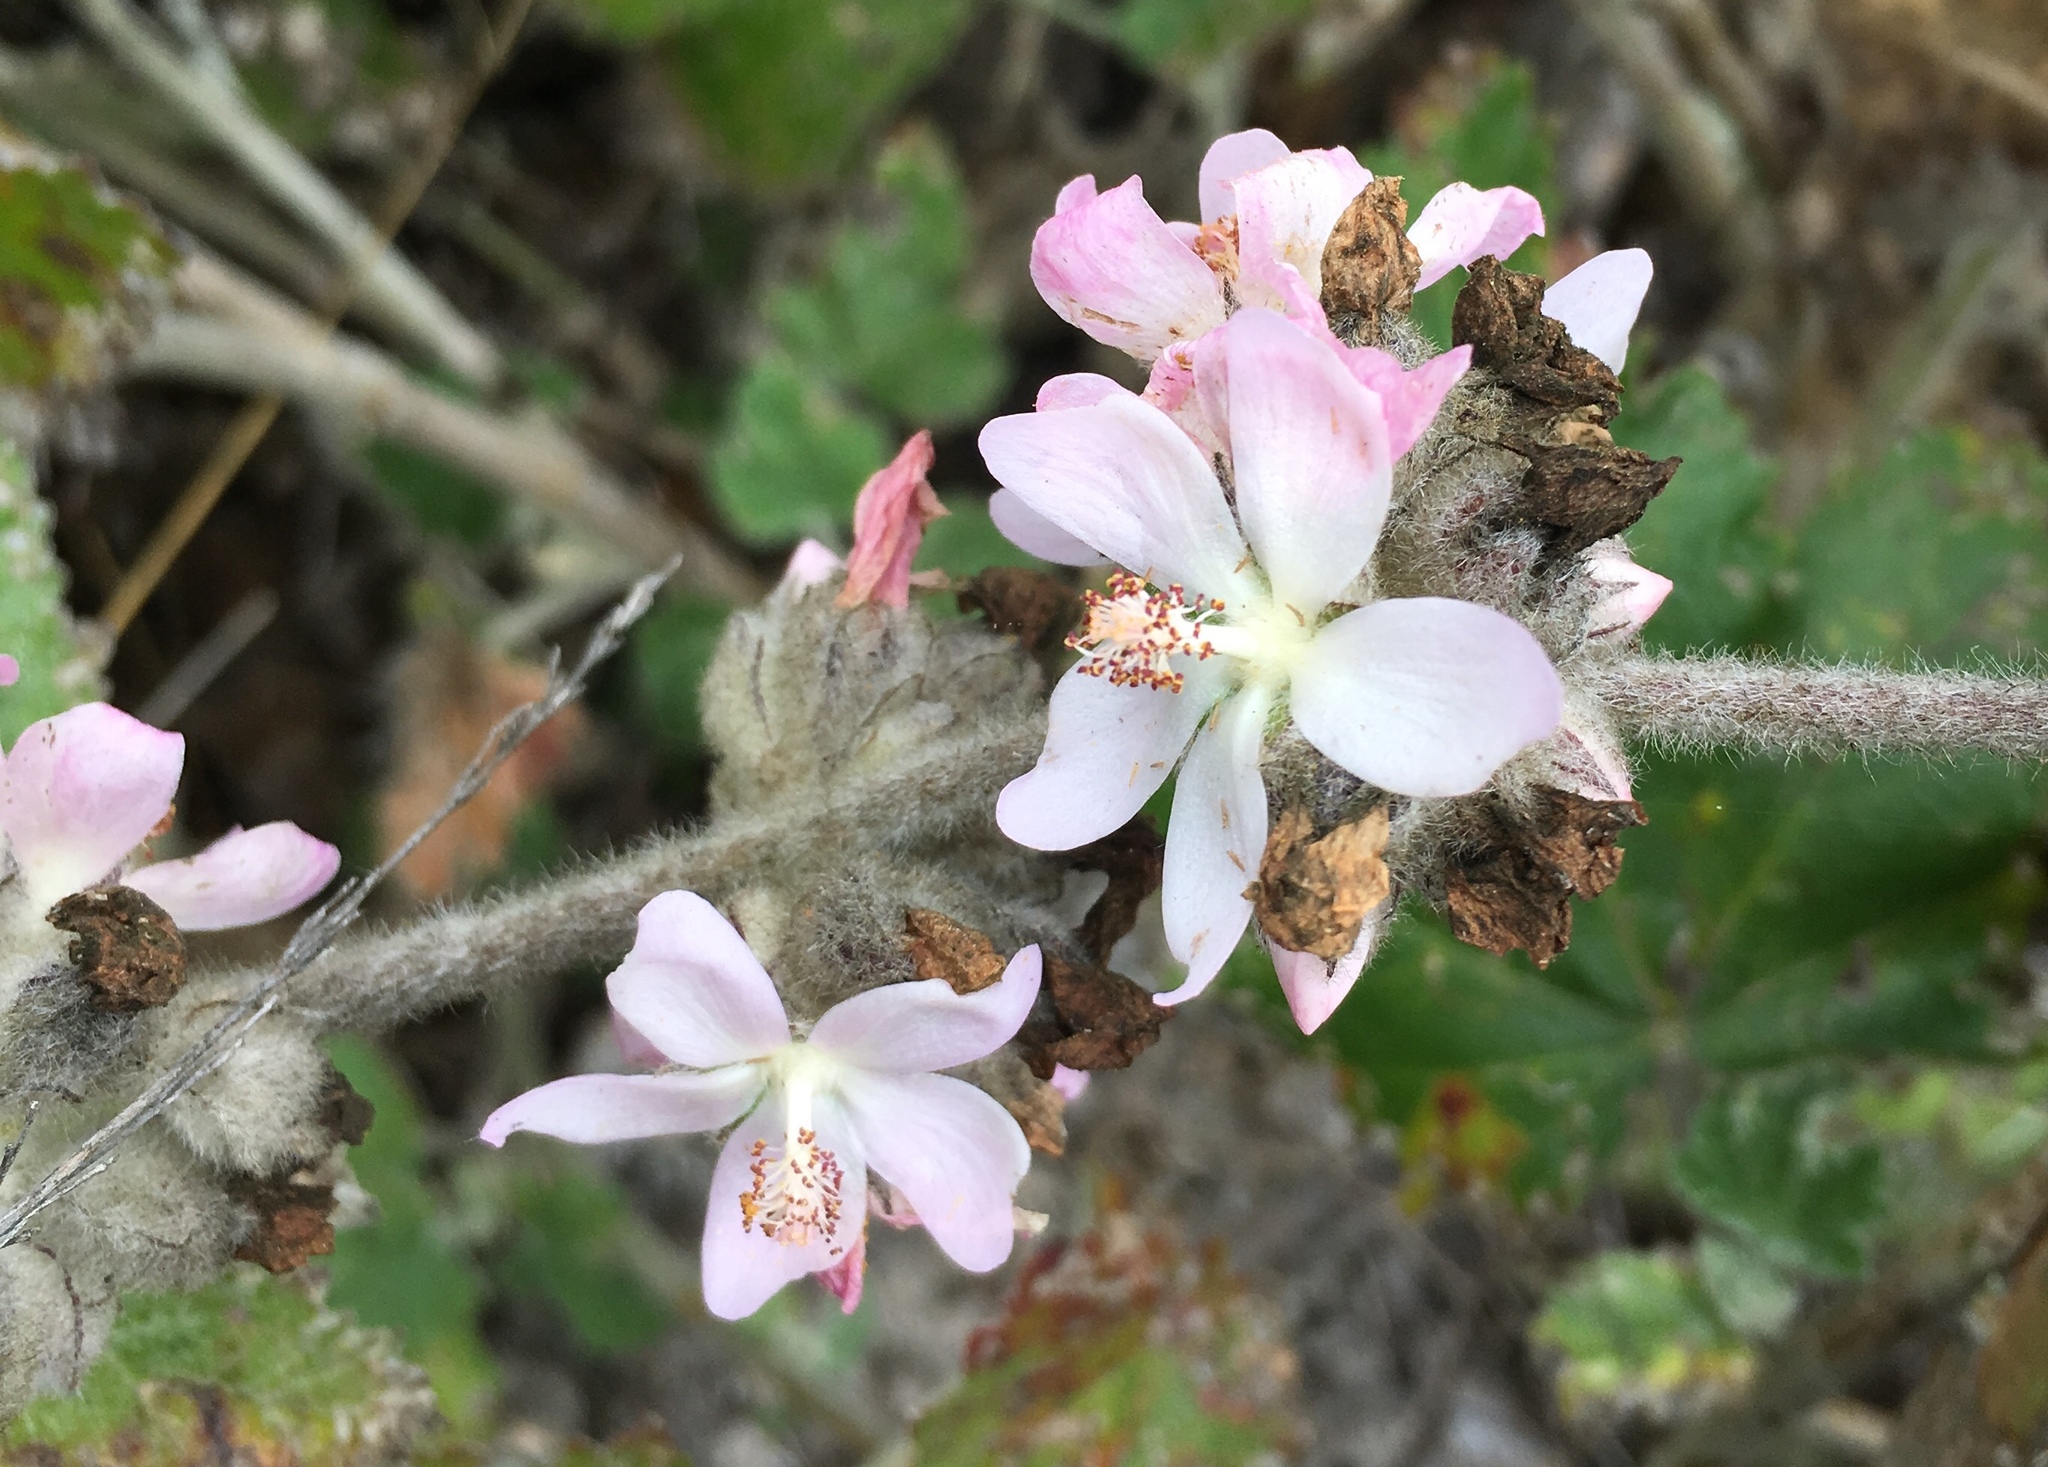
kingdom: Plantae
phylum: Tracheophyta
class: Magnoliopsida
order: Malvales
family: Malvaceae
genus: Malacothamnus
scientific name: Malacothamnus clementinus
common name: San clemente island bush-mallow
